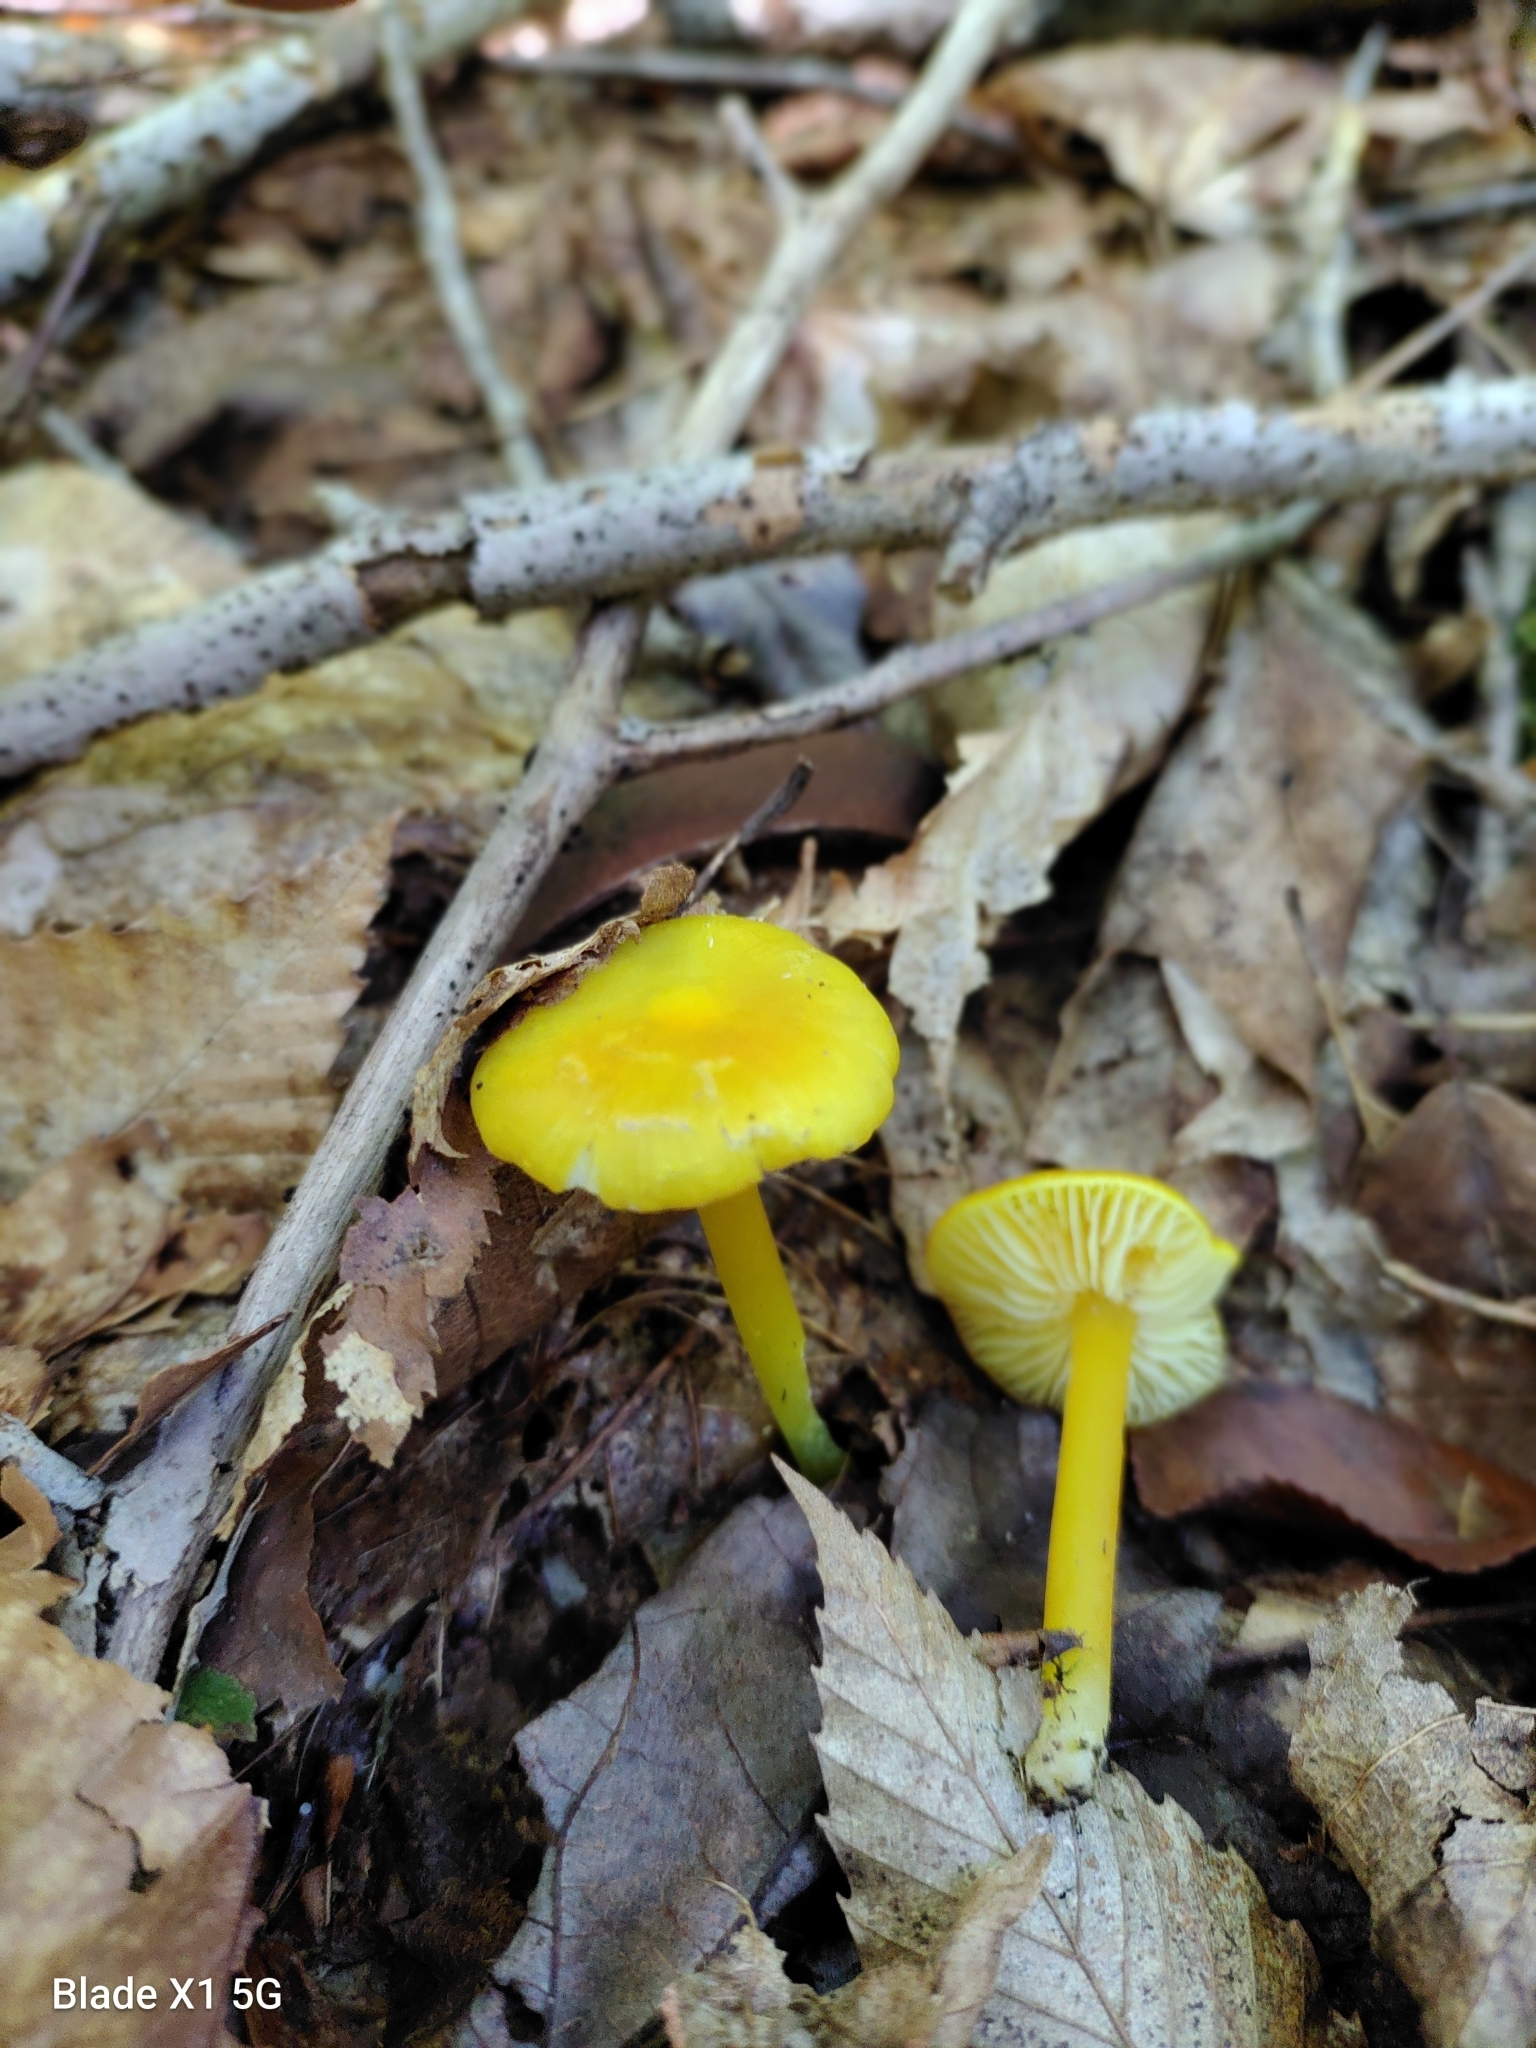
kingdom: Fungi
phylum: Basidiomycota
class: Agaricomycetes
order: Agaricales
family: Hygrophoraceae
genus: Hygrocybe
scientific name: Hygrocybe chlorophana
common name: Golden waxcap
